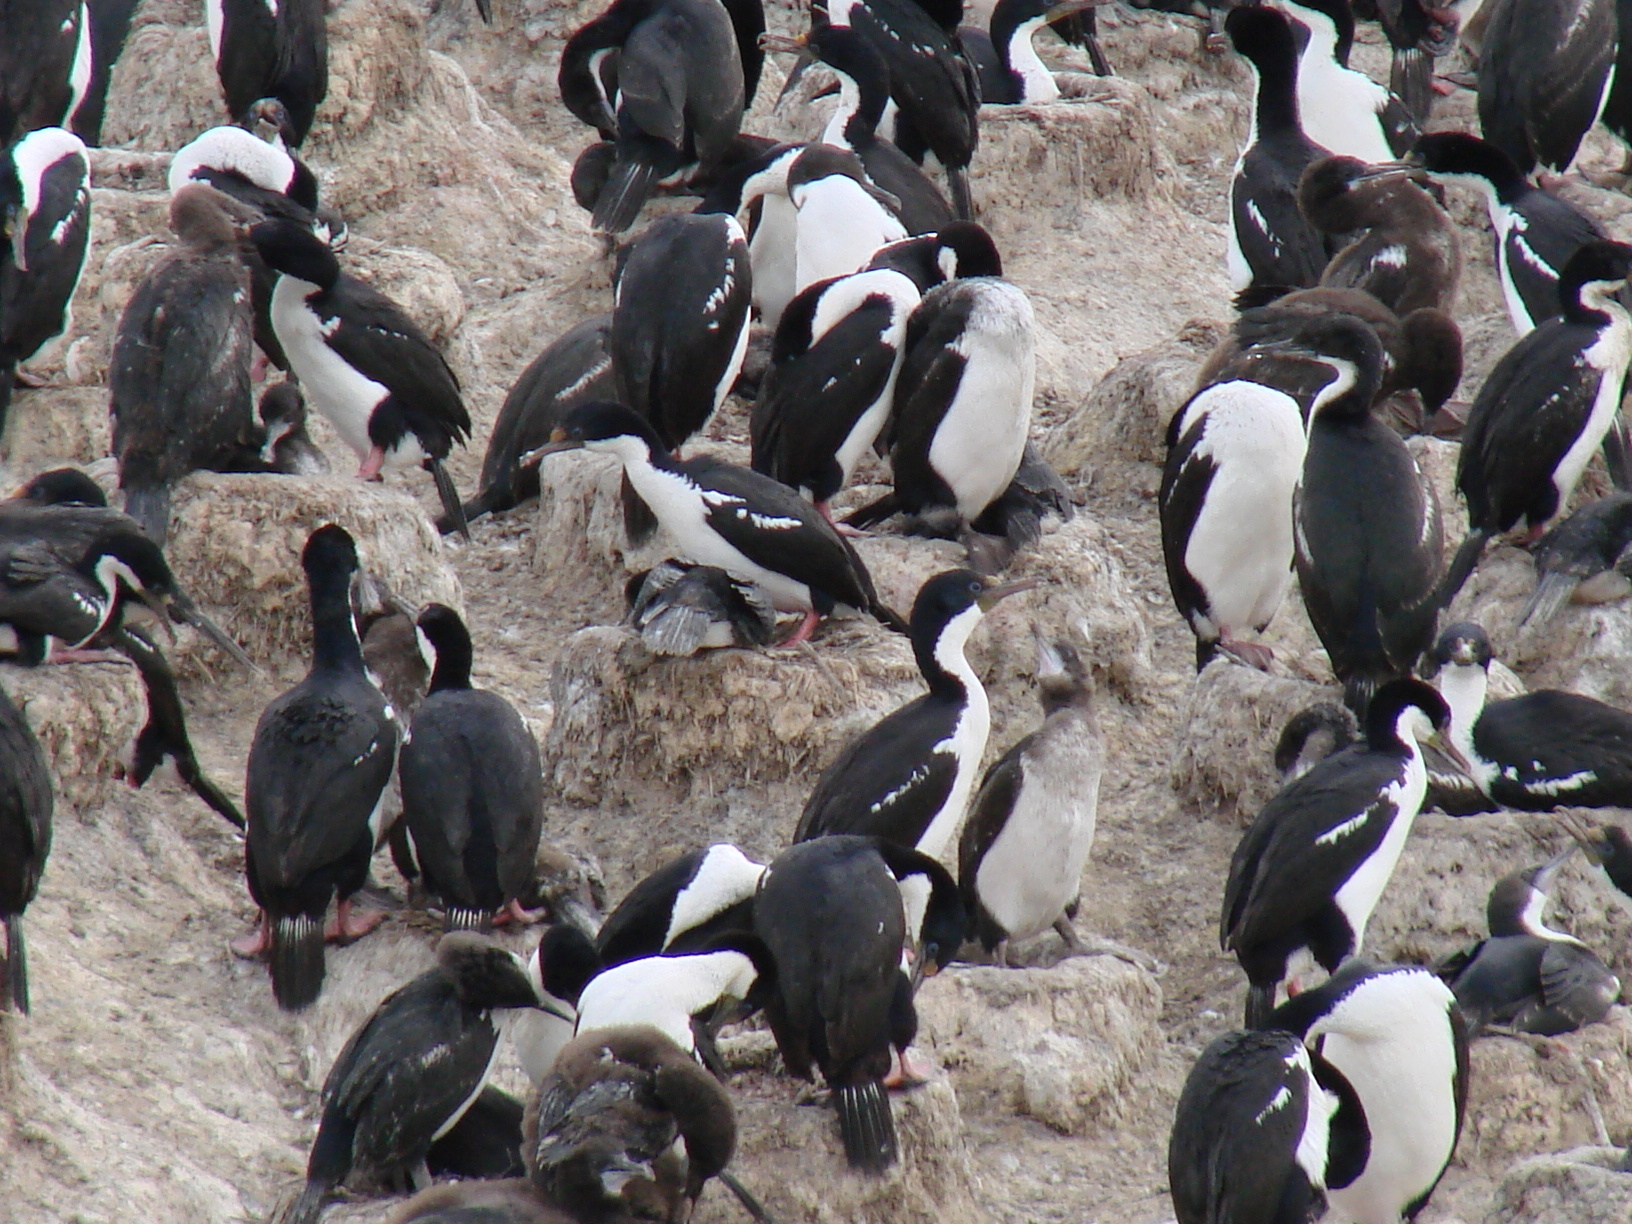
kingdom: Animalia
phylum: Chordata
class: Aves
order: Suliformes
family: Phalacrocoracidae
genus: Leucocarbo
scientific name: Leucocarbo atriceps
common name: Imperial shag
